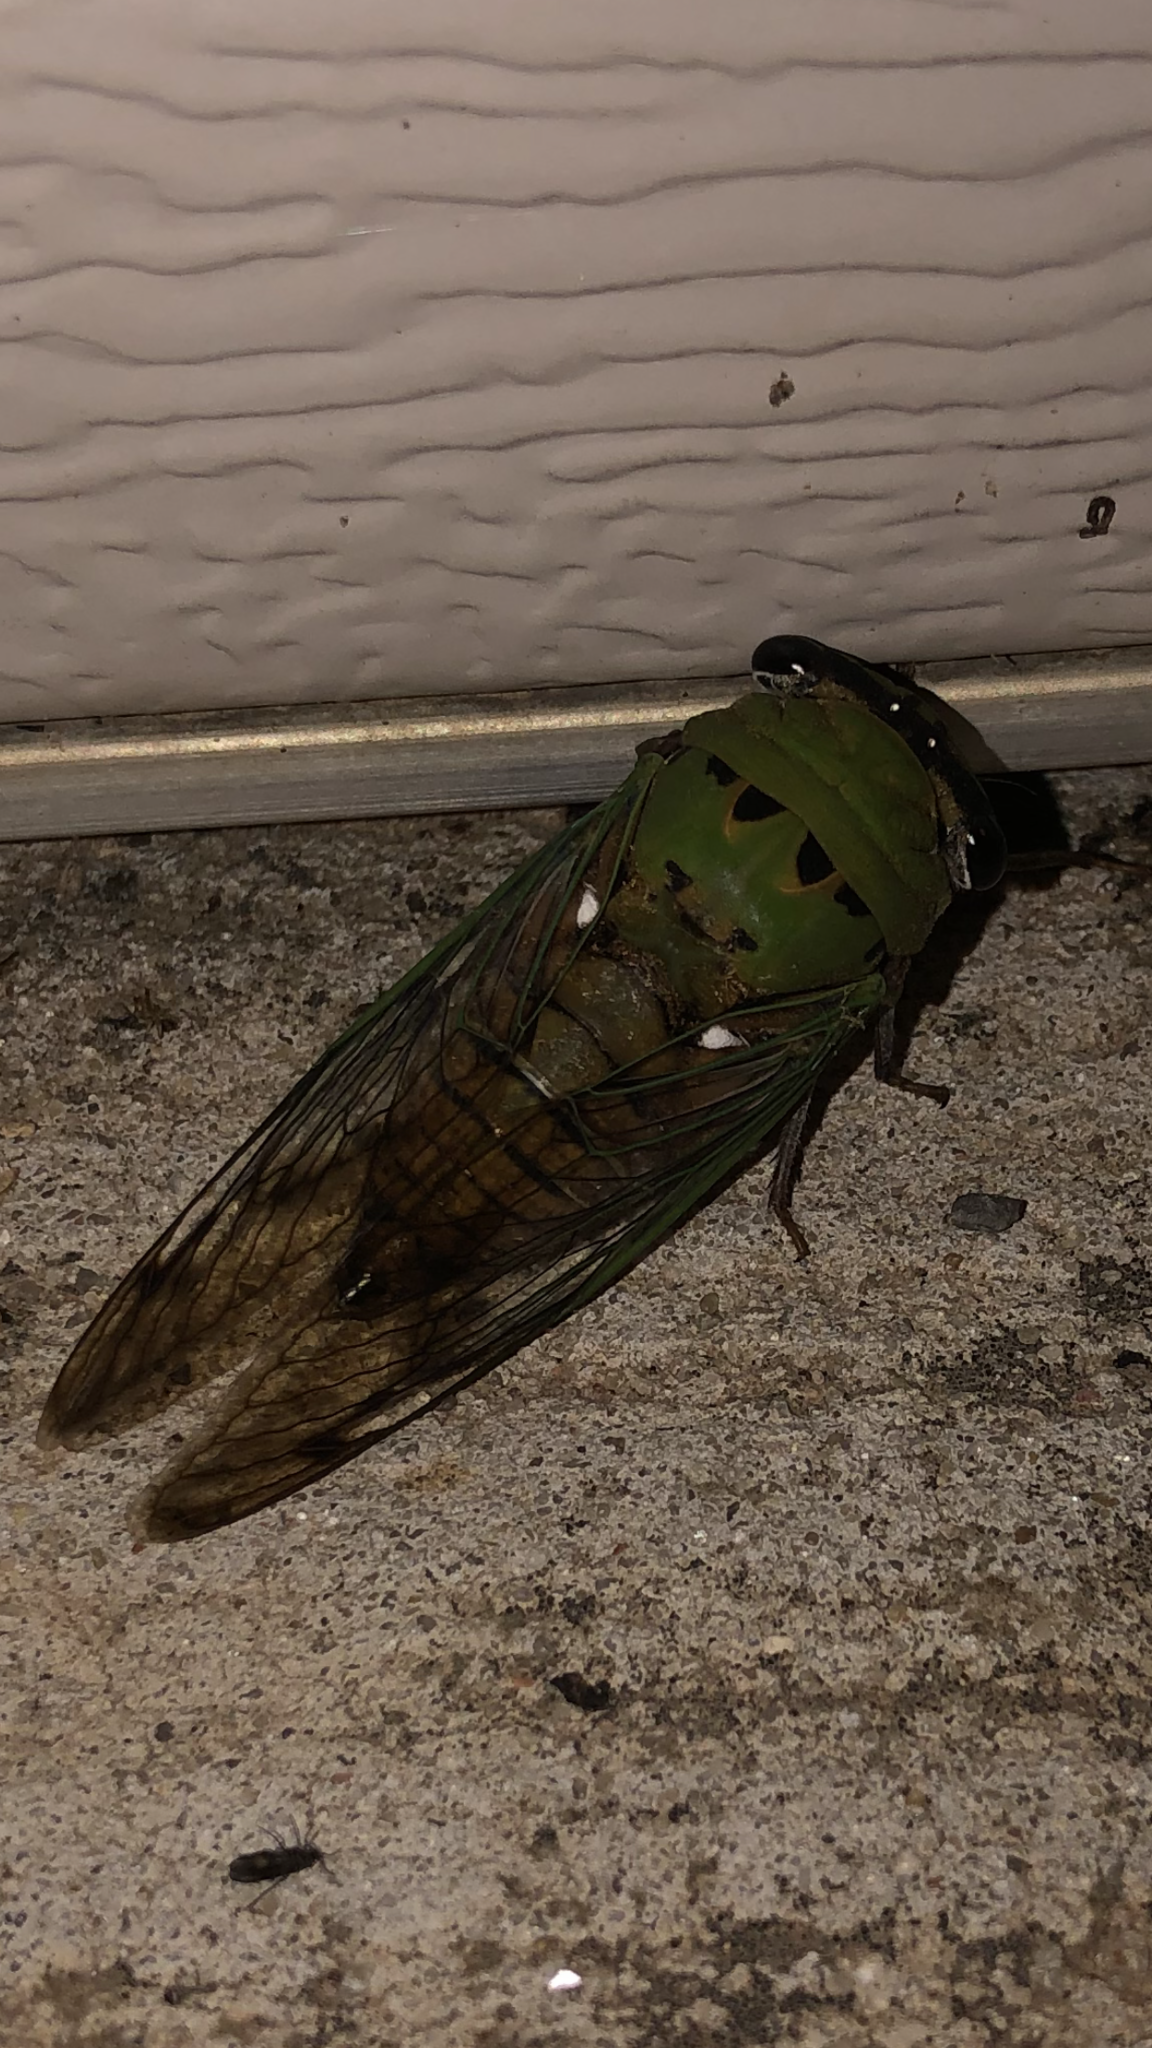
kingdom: Animalia
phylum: Arthropoda
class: Insecta
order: Hemiptera
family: Cicadidae
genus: Neotibicen
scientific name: Neotibicen superbus
